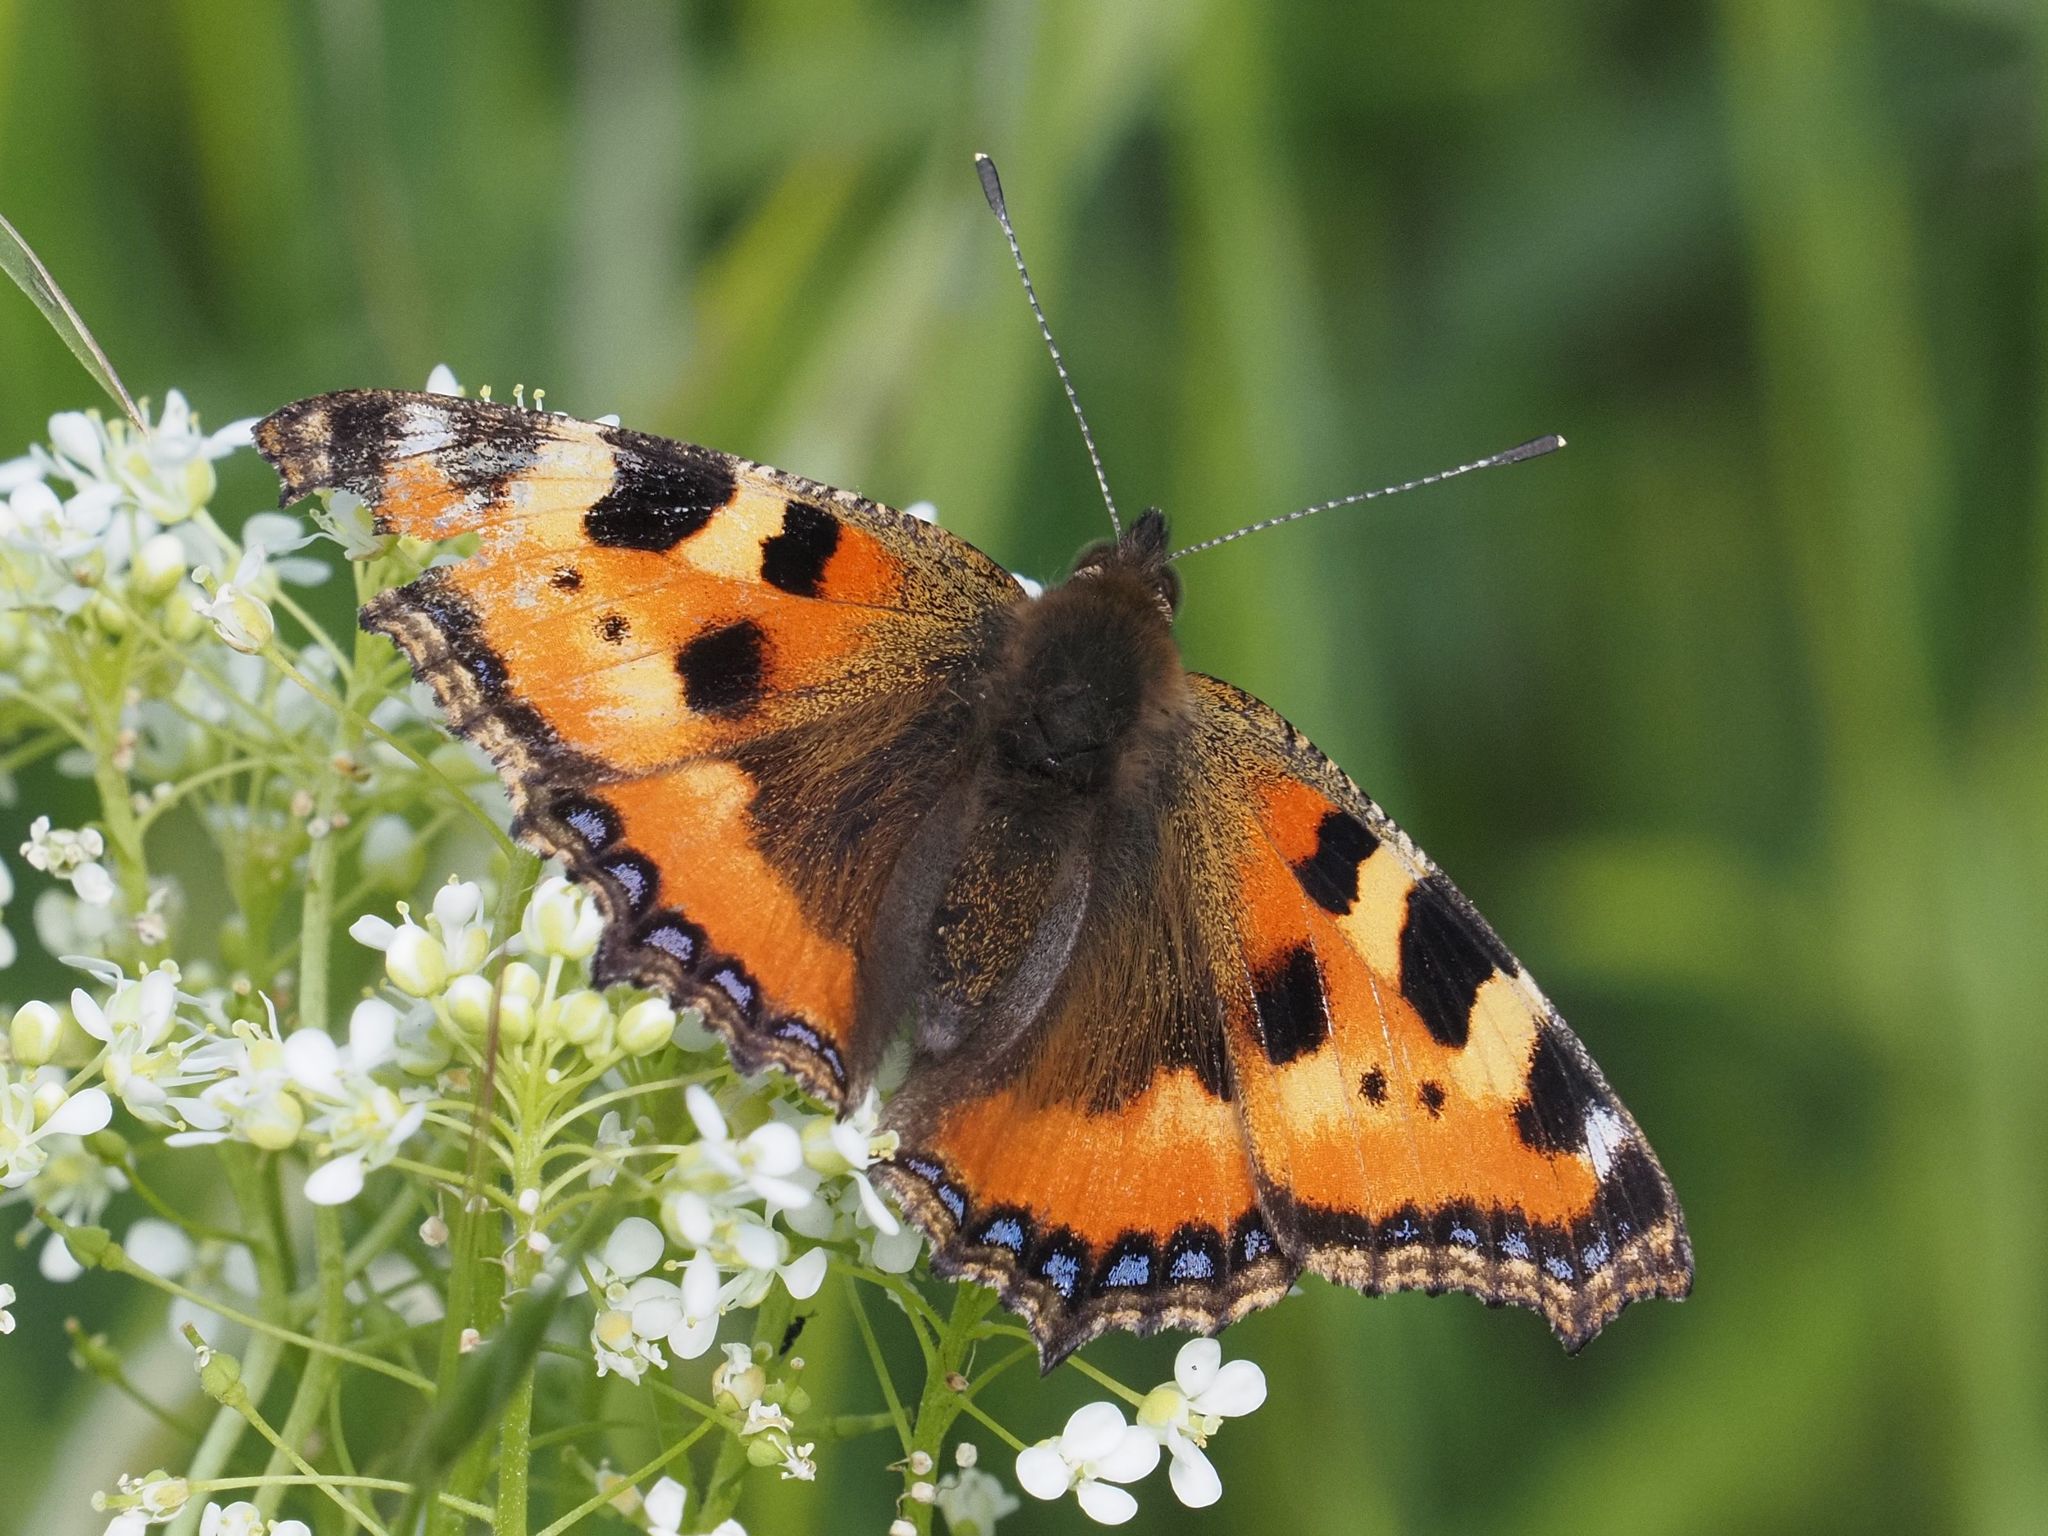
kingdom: Animalia
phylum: Arthropoda
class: Insecta
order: Lepidoptera
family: Nymphalidae
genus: Aglais
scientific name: Aglais urticae
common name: Small tortoiseshell
